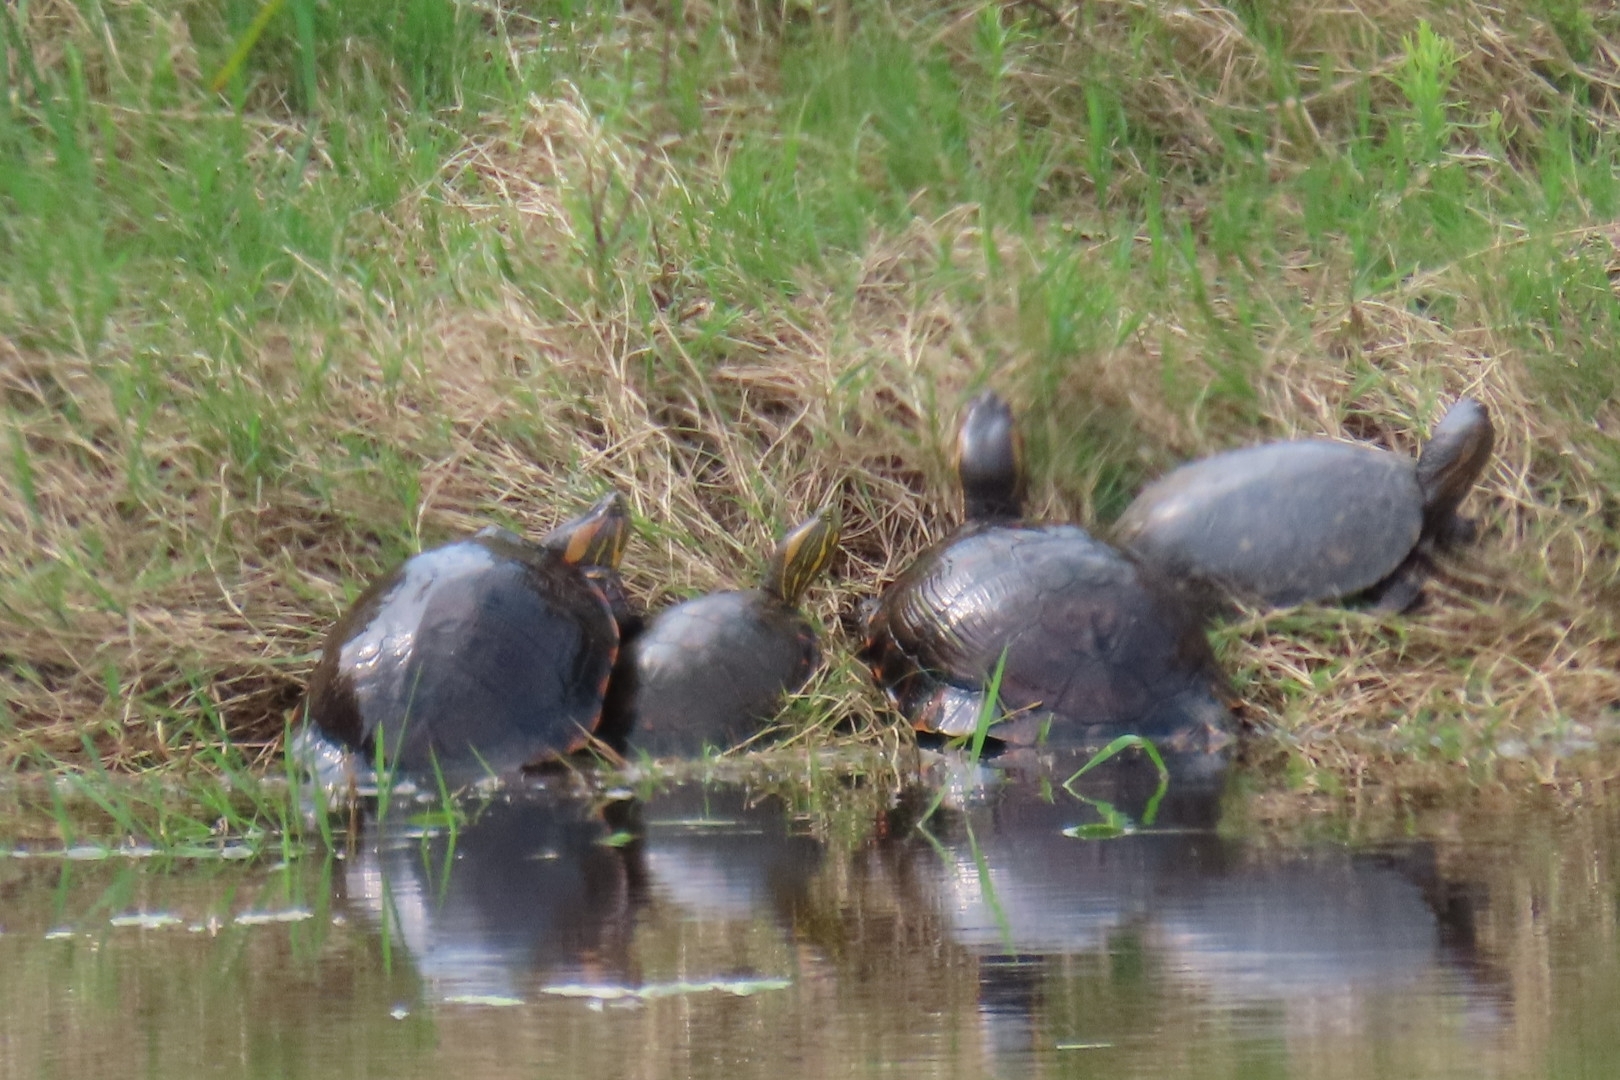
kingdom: Animalia
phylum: Chordata
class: Testudines
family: Emydidae
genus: Trachemys
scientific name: Trachemys dorbigni
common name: Black-bellied slider
